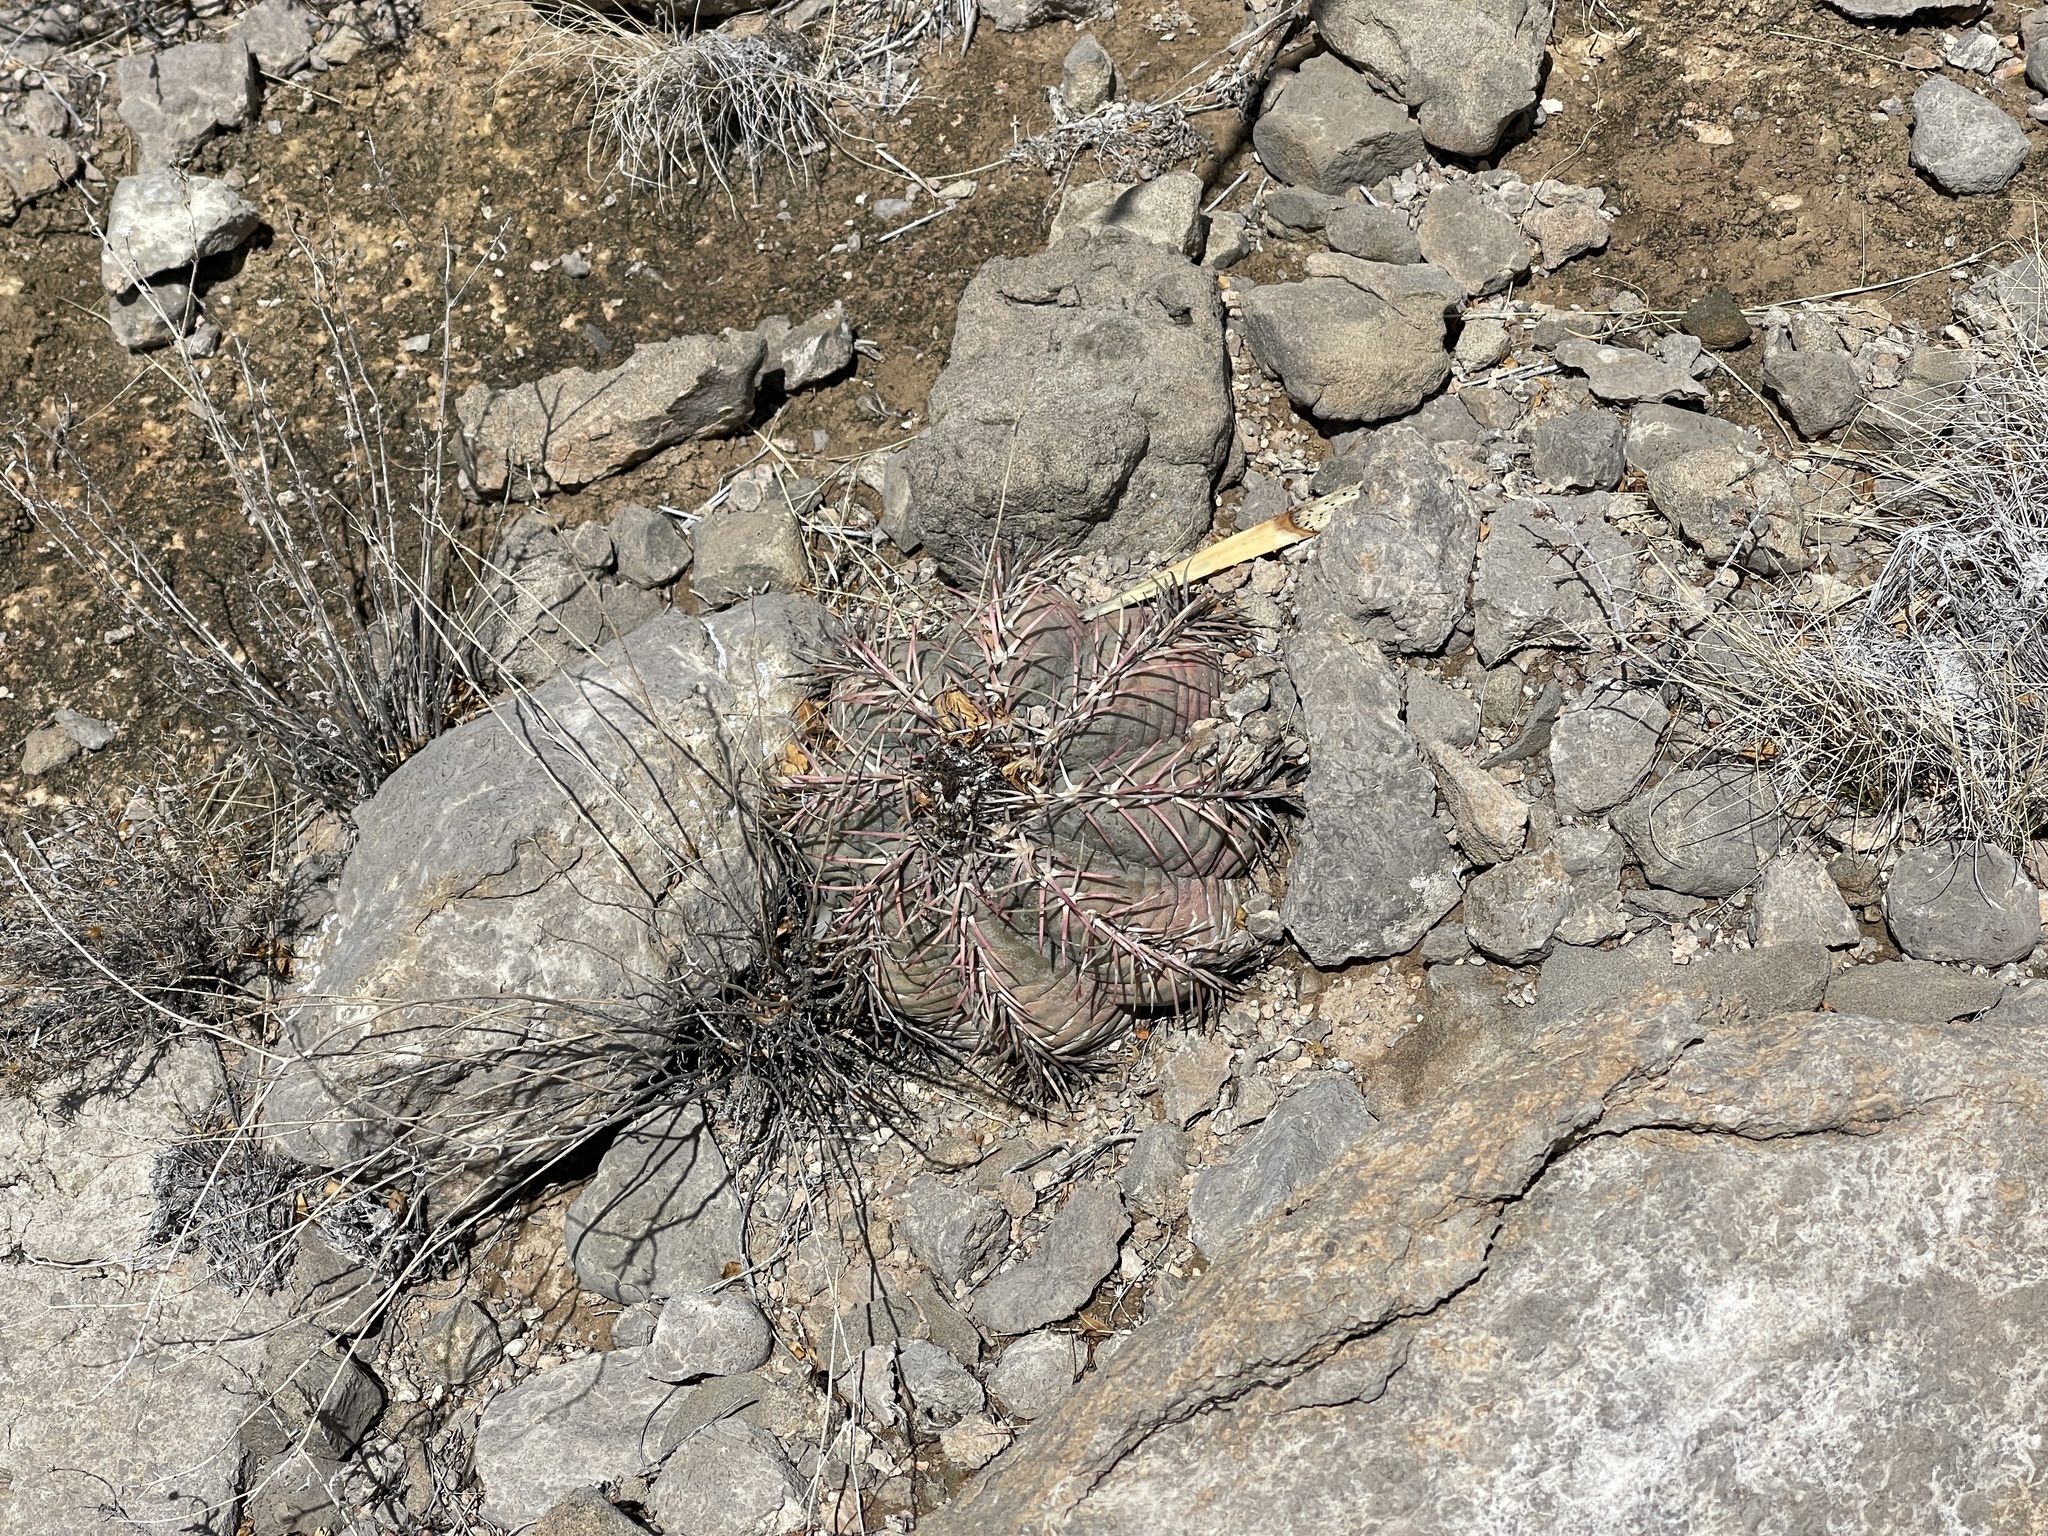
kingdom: Plantae
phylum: Tracheophyta
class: Magnoliopsida
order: Caryophyllales
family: Cactaceae
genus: Echinocactus
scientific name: Echinocactus horizonthalonius
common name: Devilshead
